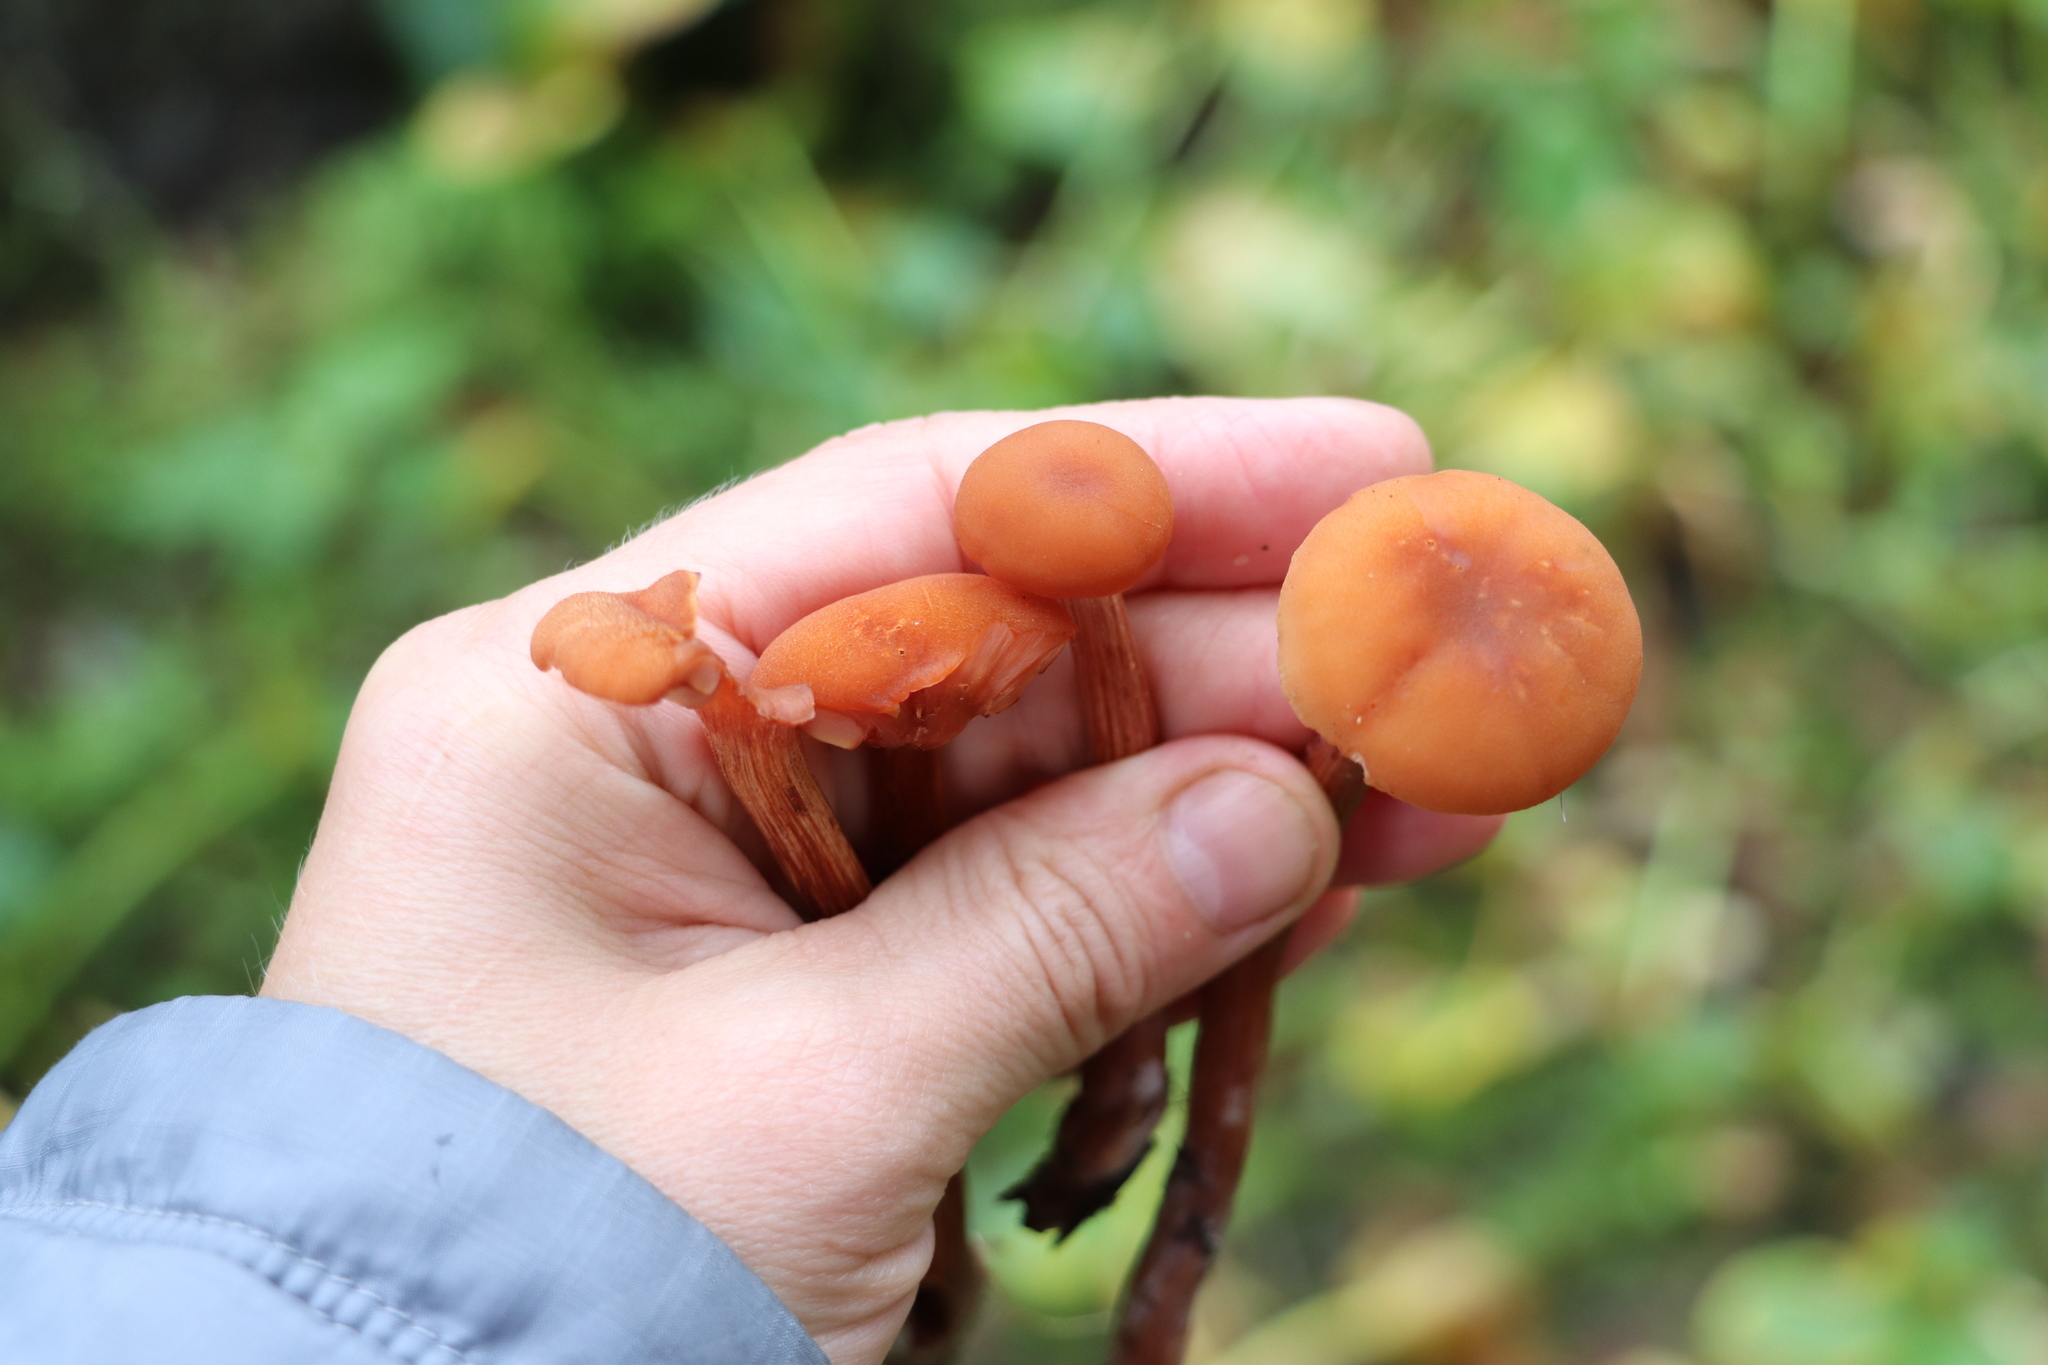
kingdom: Fungi
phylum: Basidiomycota
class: Agaricomycetes
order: Agaricales
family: Hydnangiaceae
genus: Laccaria
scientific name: Laccaria laccata
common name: Deceiver
